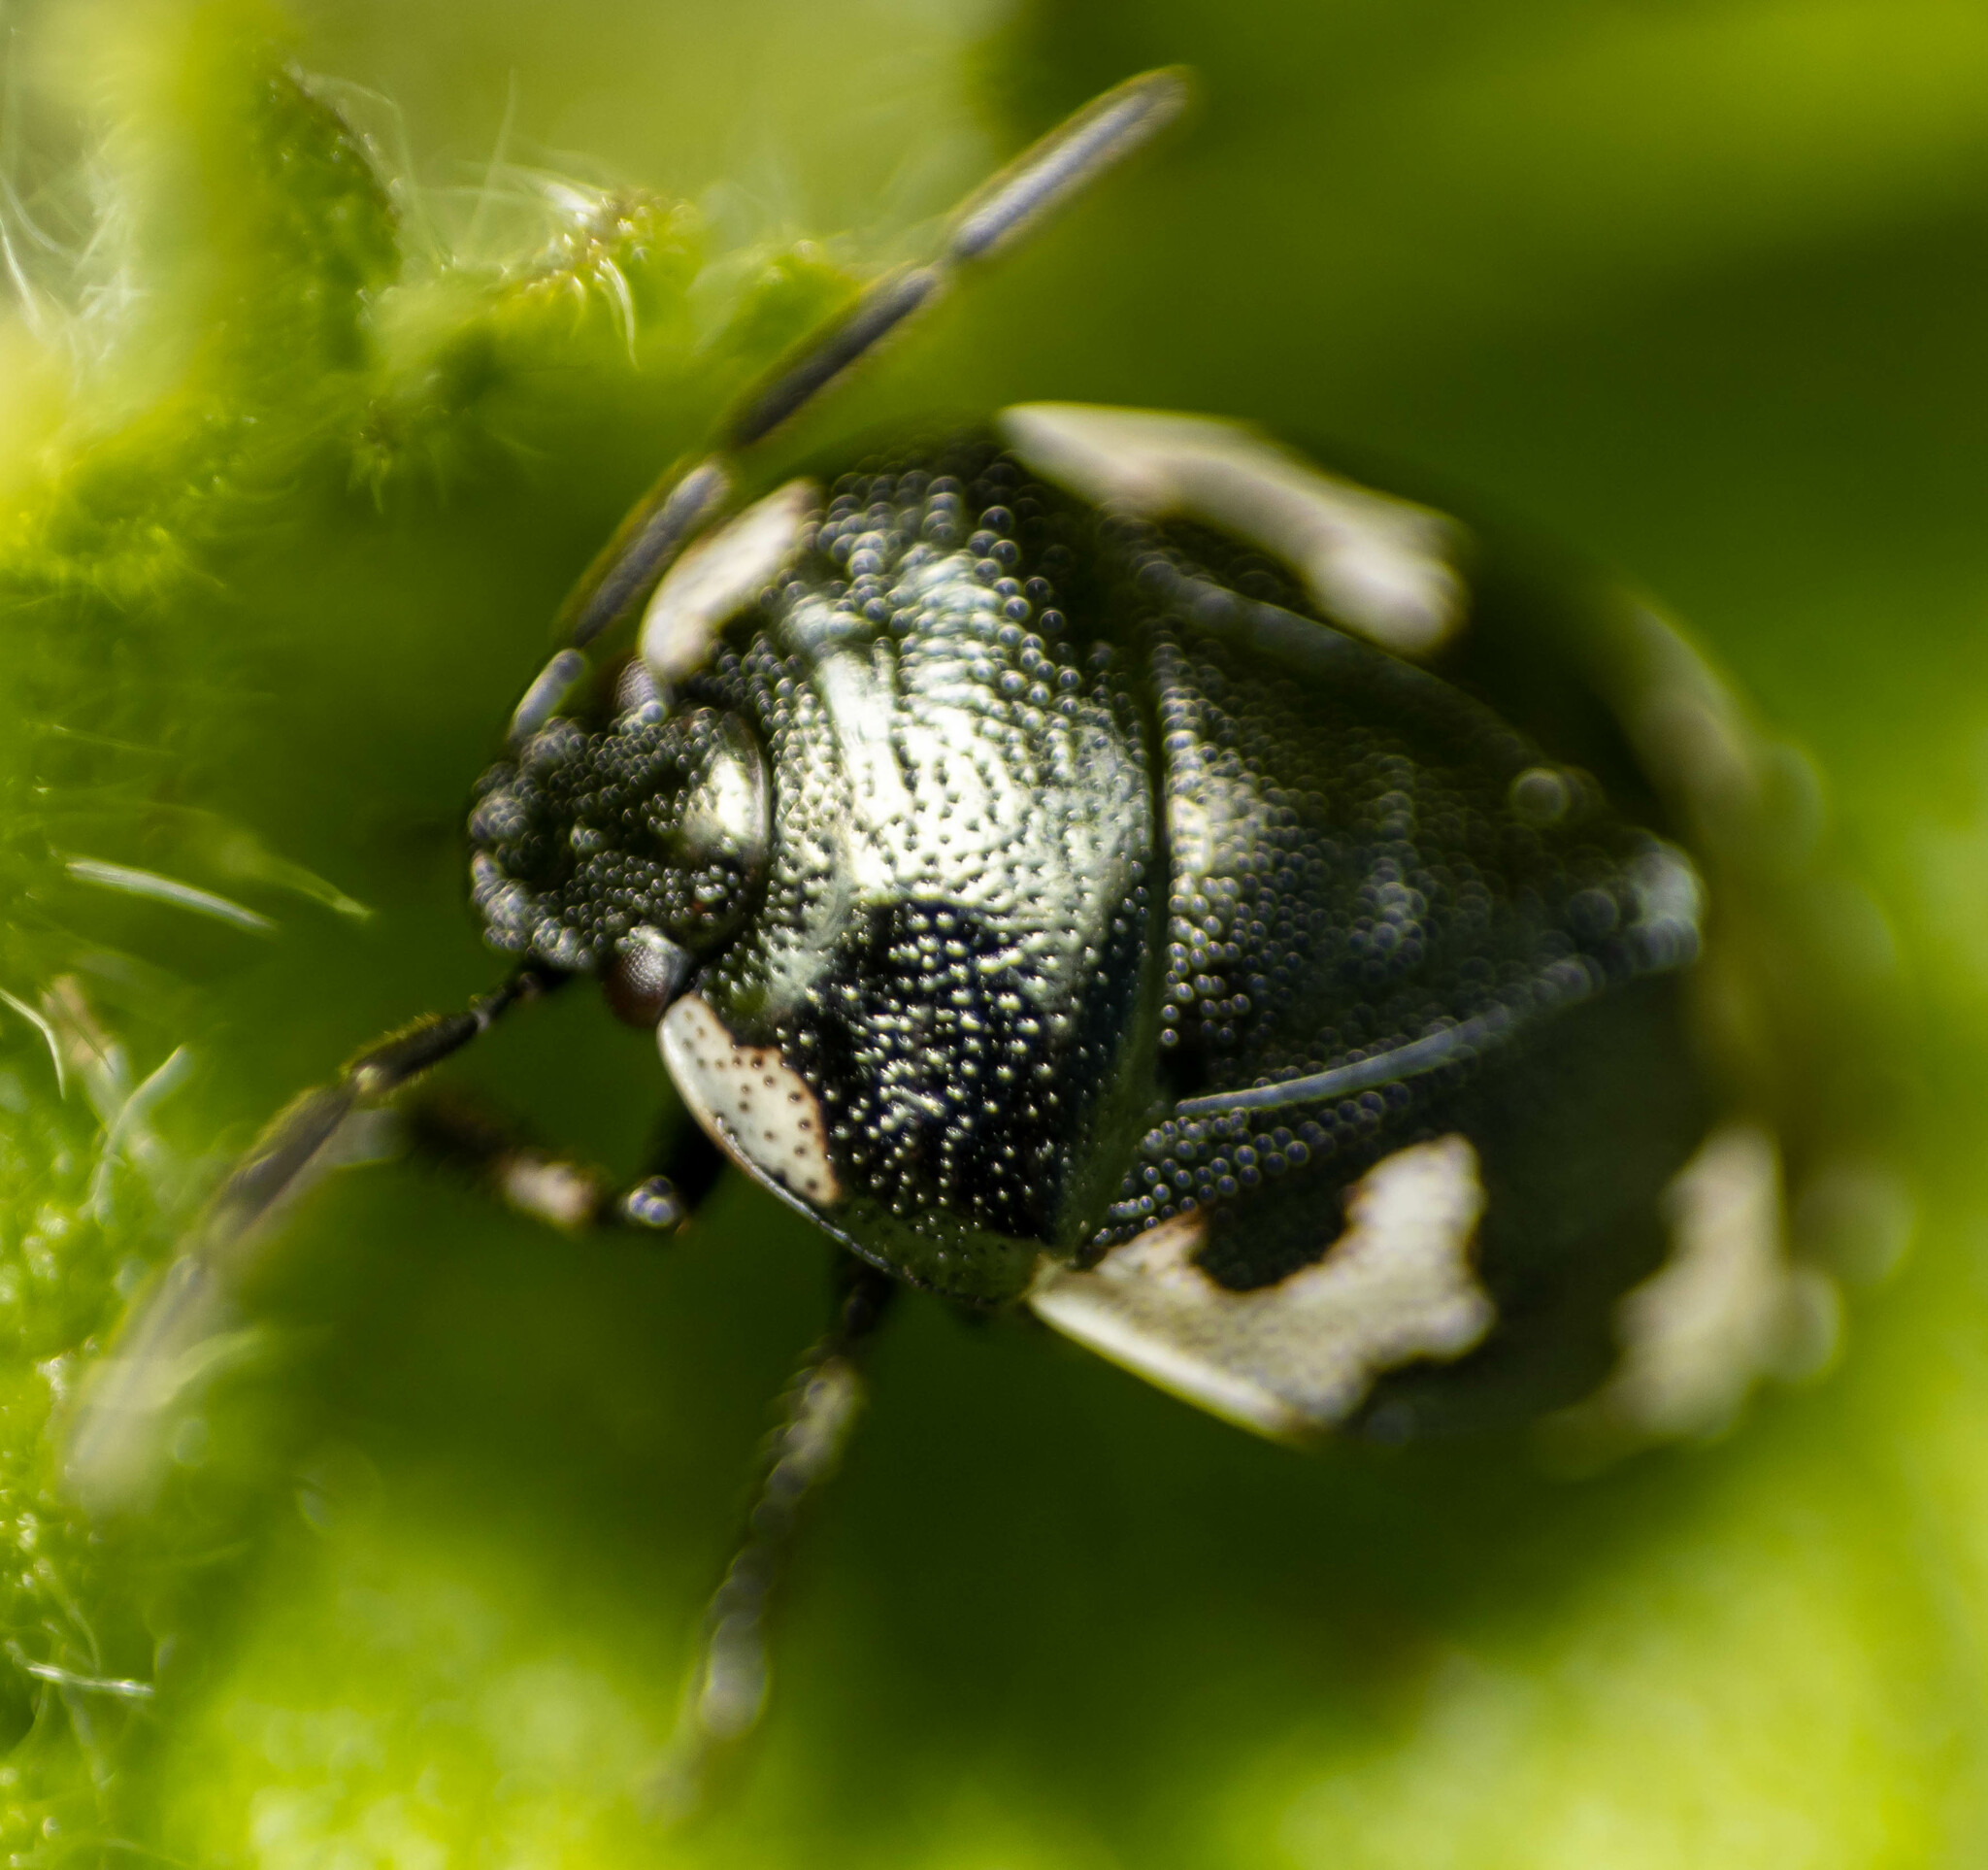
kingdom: Animalia
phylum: Arthropoda
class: Insecta
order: Hemiptera
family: Cydnidae
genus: Tritomegas
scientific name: Tritomegas bicolor
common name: Pied shieldbug
